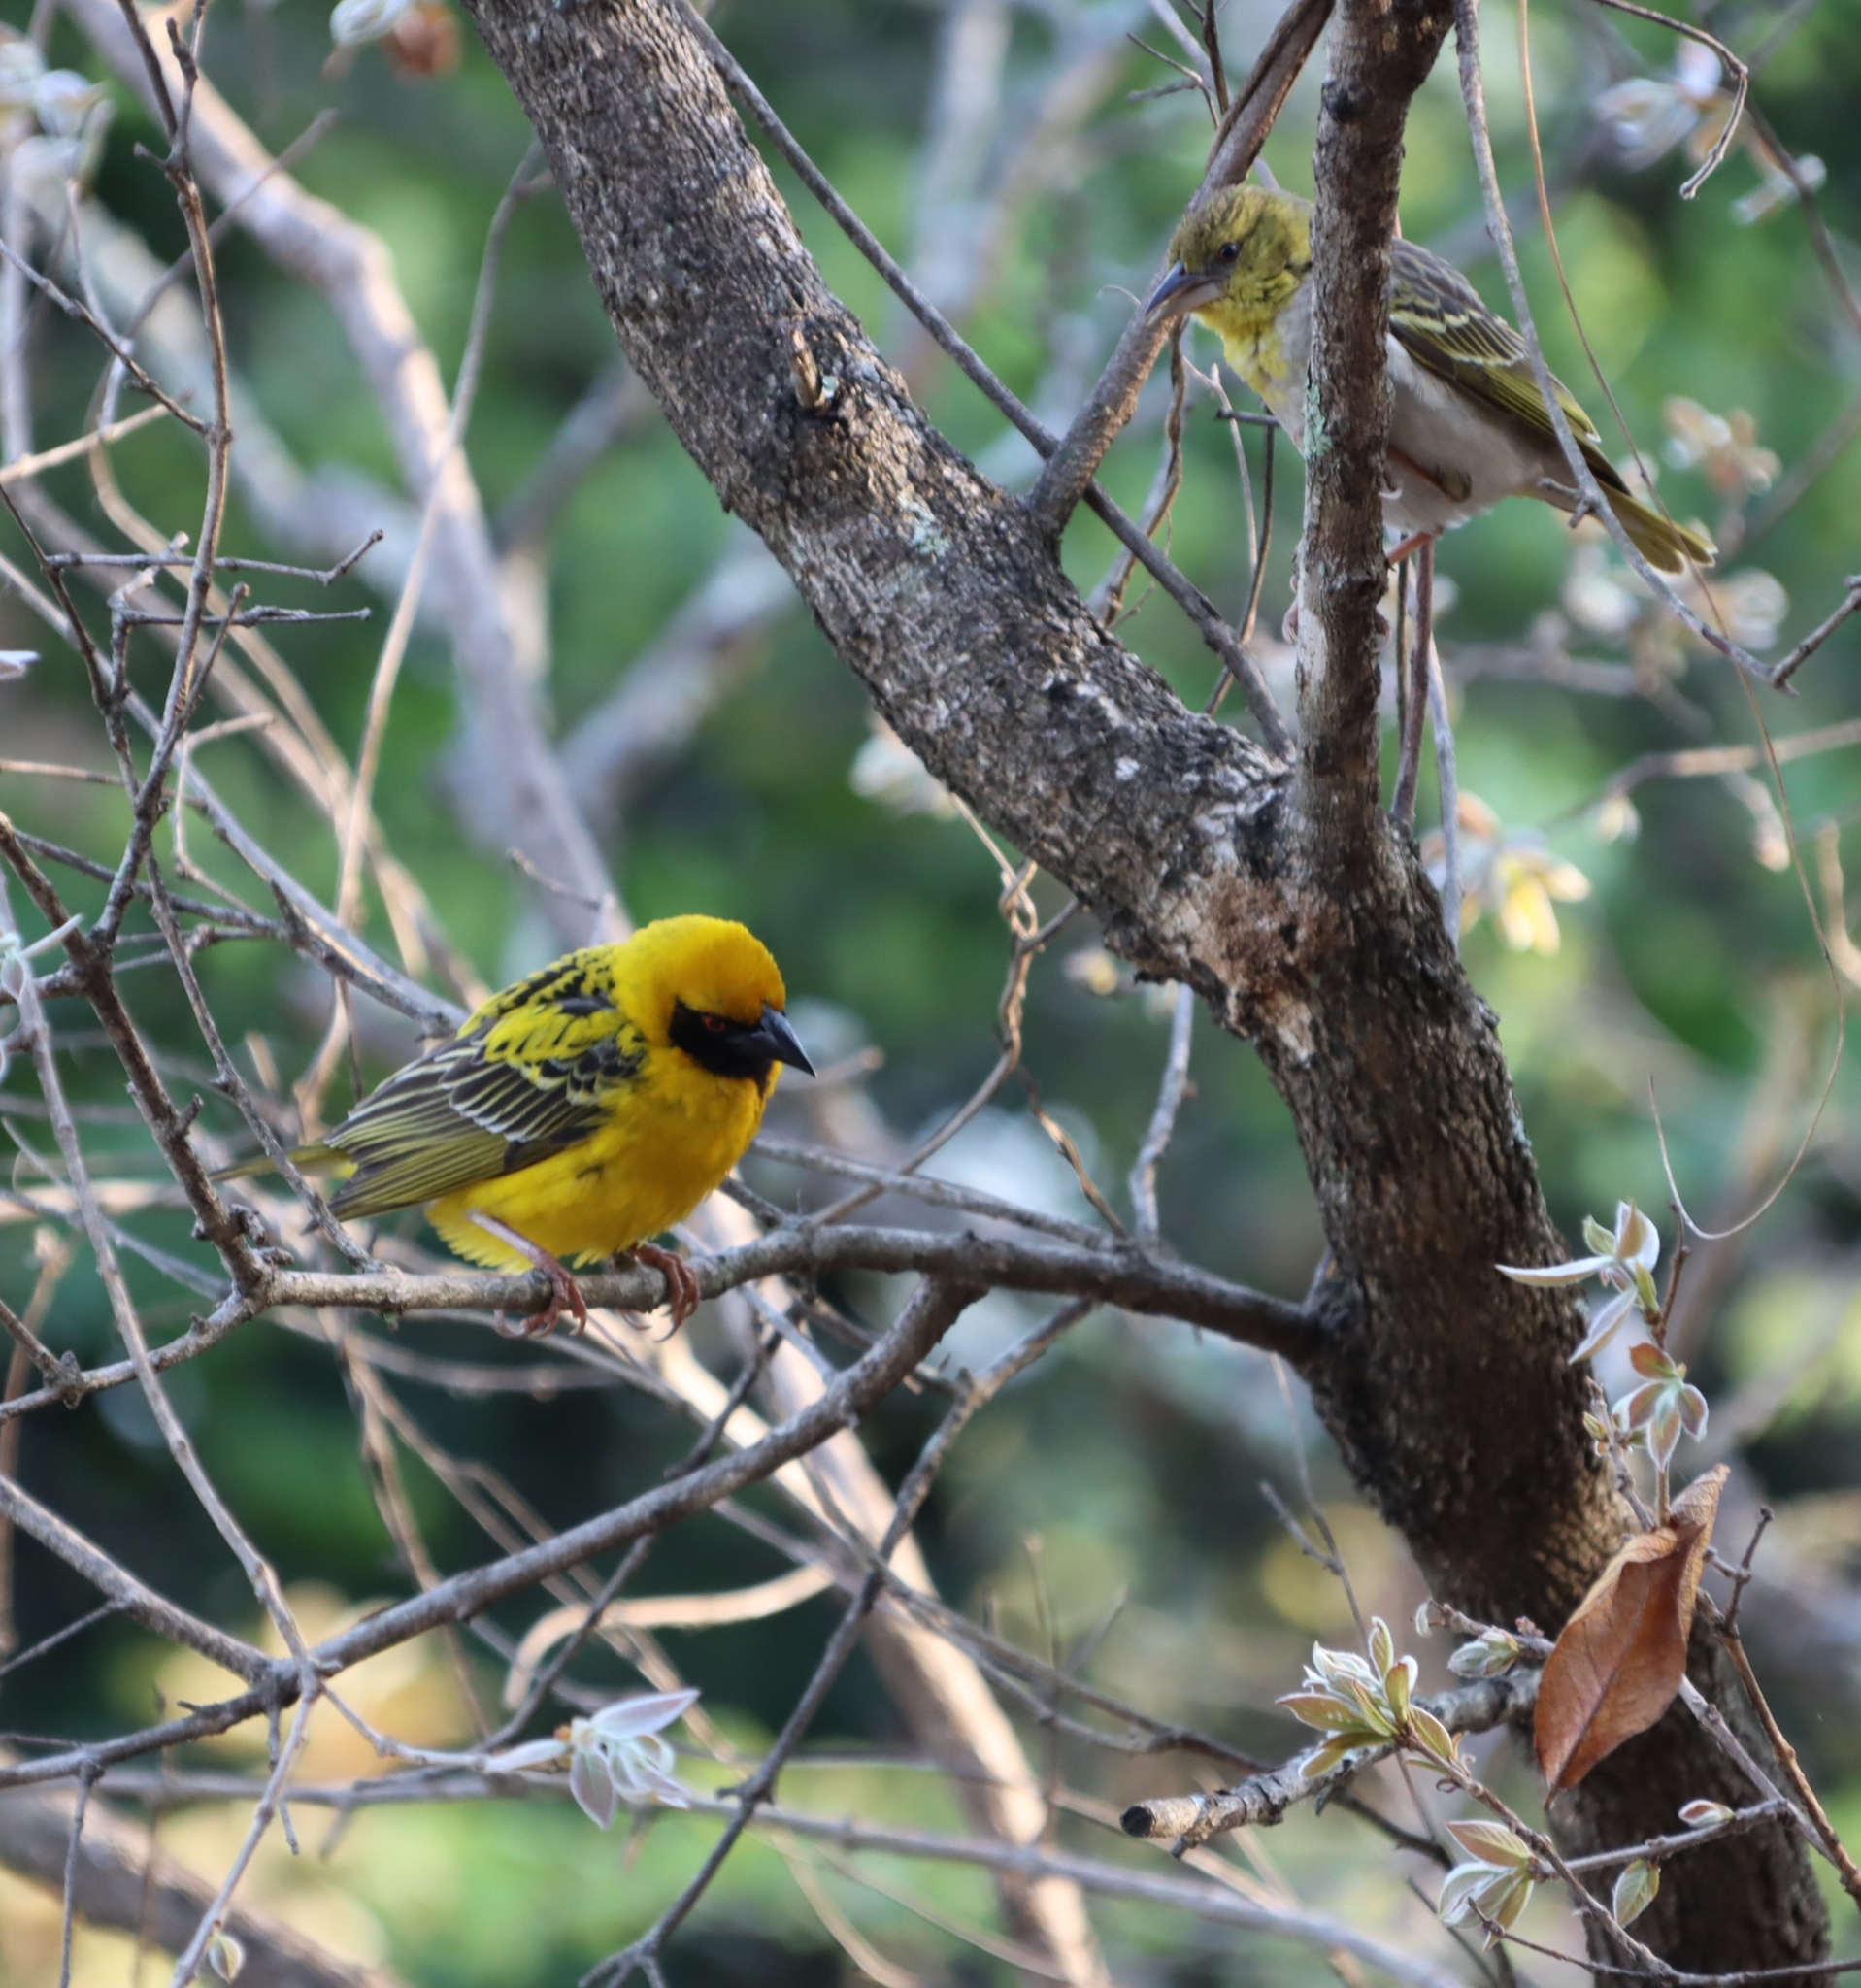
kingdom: Animalia
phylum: Chordata
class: Aves
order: Passeriformes
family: Ploceidae
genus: Ploceus
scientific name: Ploceus cucullatus
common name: Village weaver
